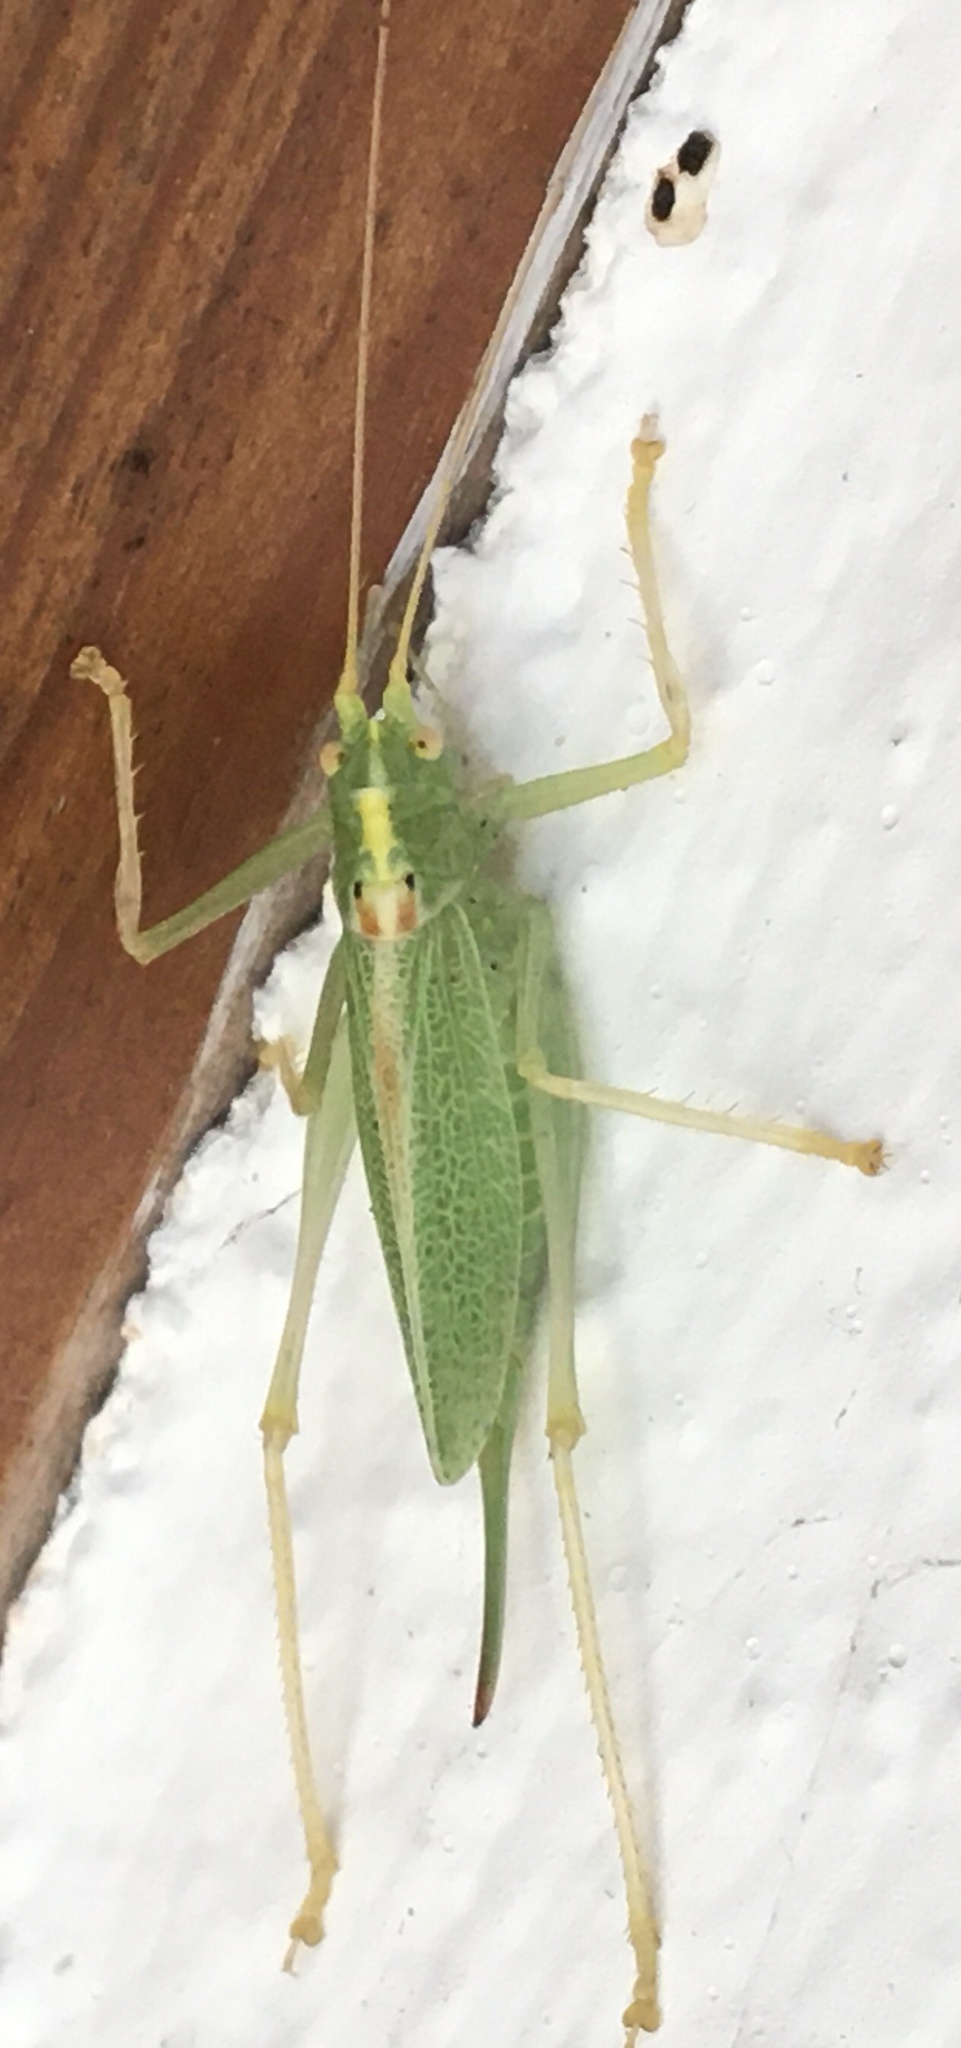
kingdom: Animalia
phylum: Arthropoda
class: Insecta
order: Orthoptera
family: Tettigoniidae
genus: Meconema
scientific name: Meconema thalassinum
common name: Oak bush-cricket
